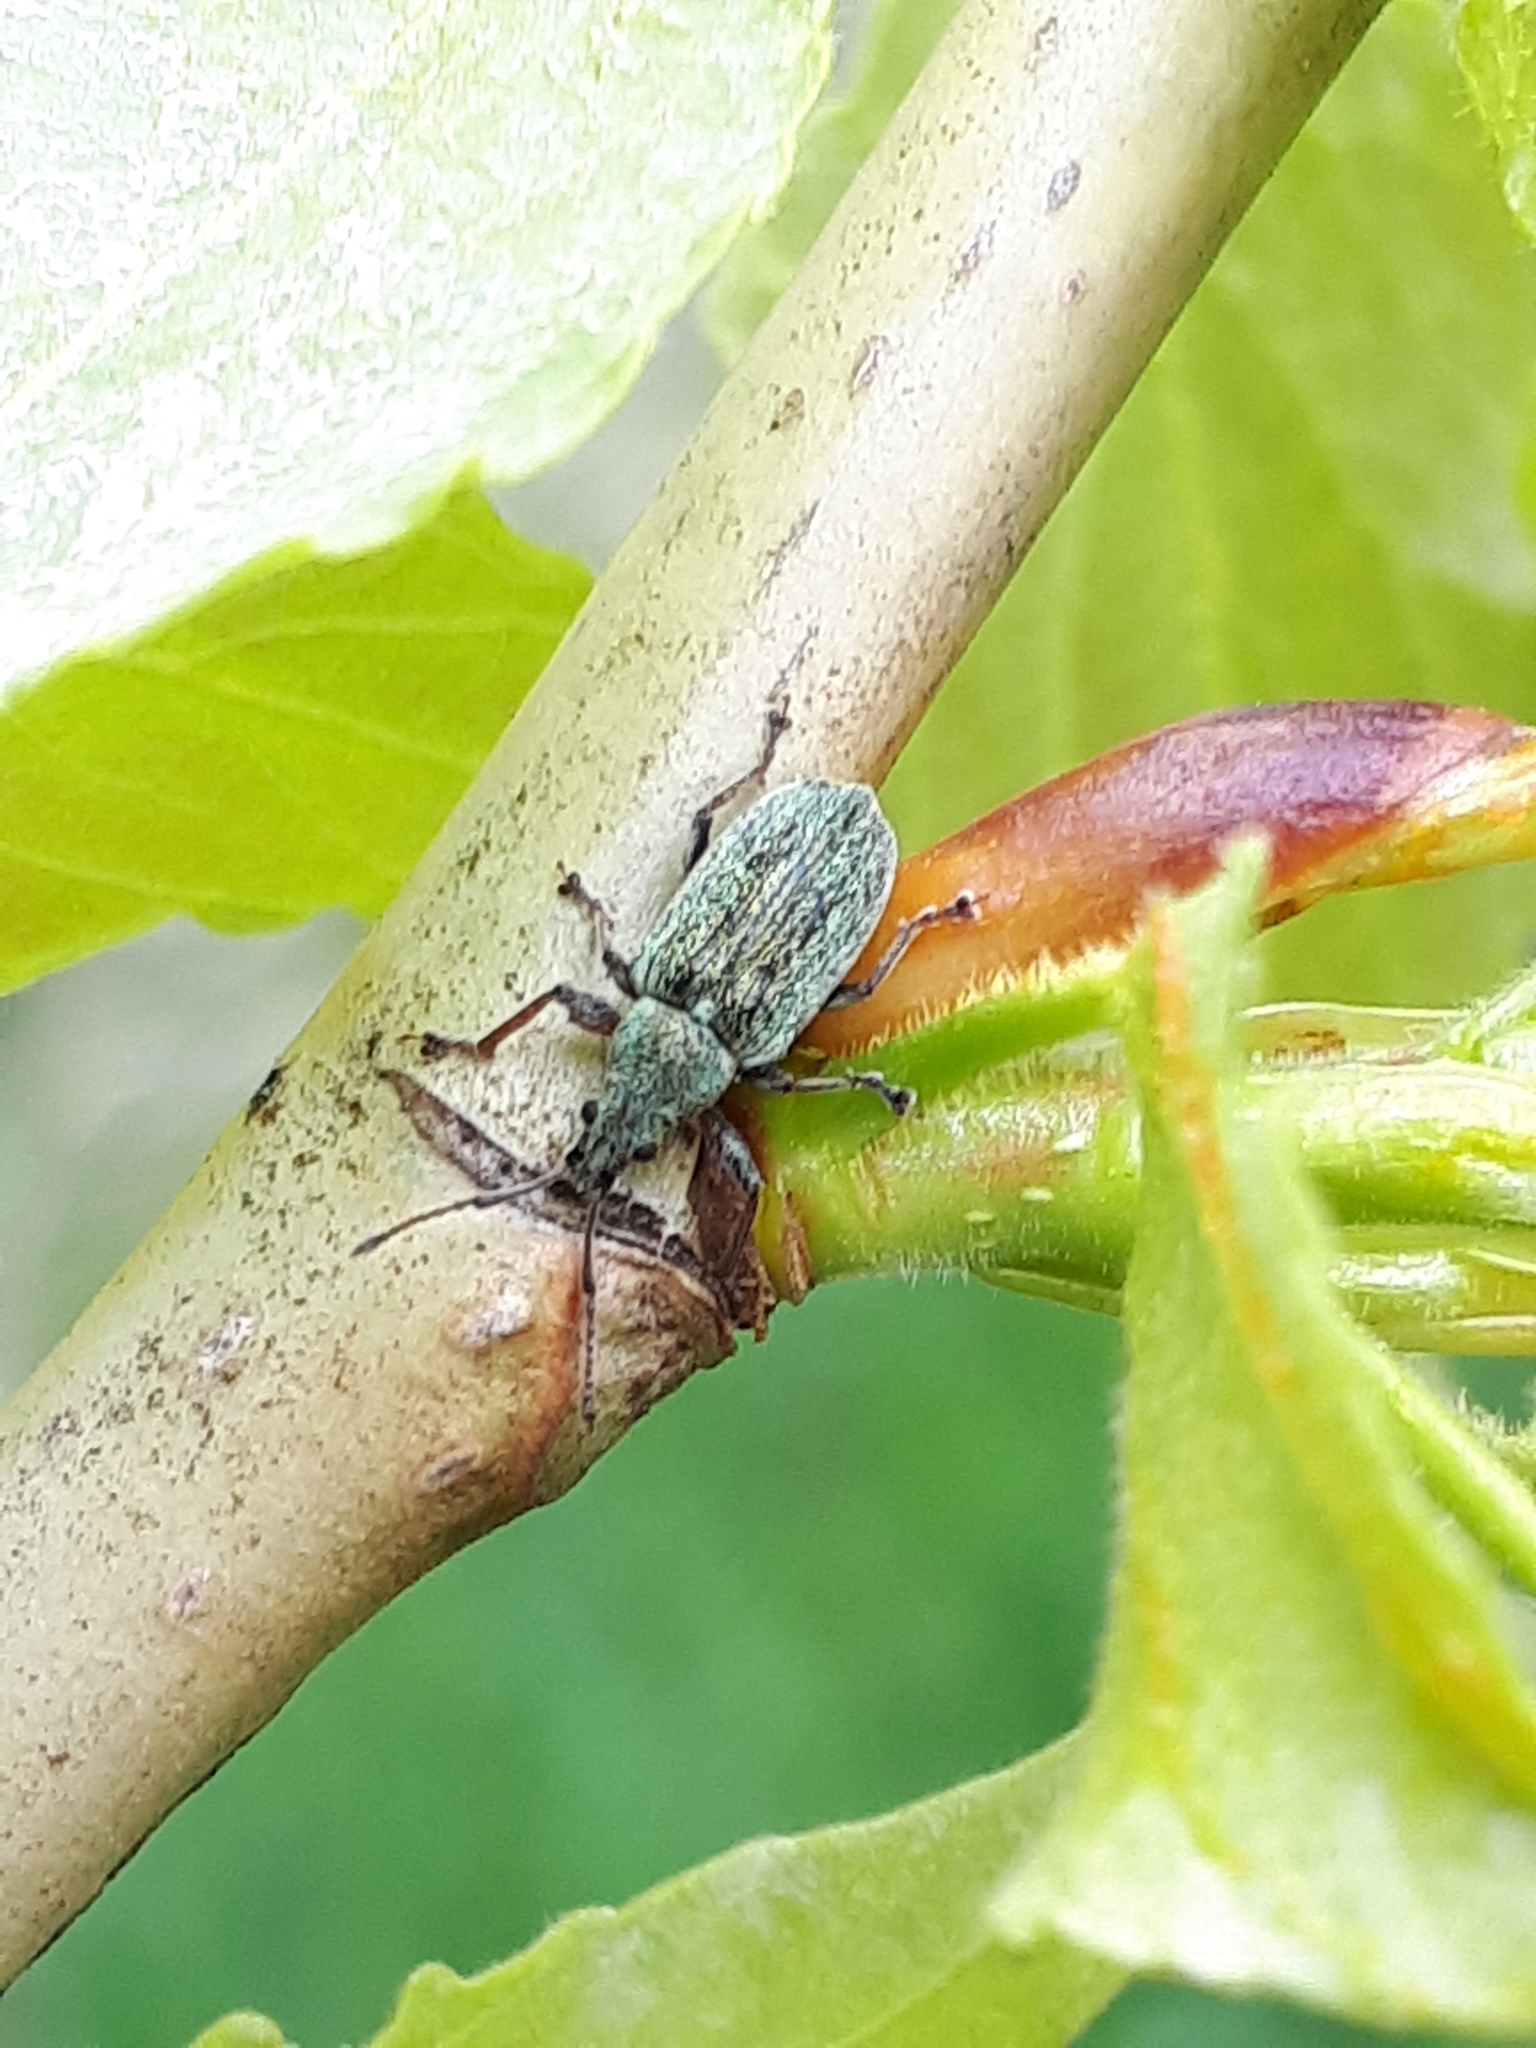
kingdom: Animalia
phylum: Arthropoda
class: Insecta
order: Coleoptera
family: Curculionidae
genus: Phyllobius
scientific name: Phyllobius pyri
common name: Common leaf weevil
